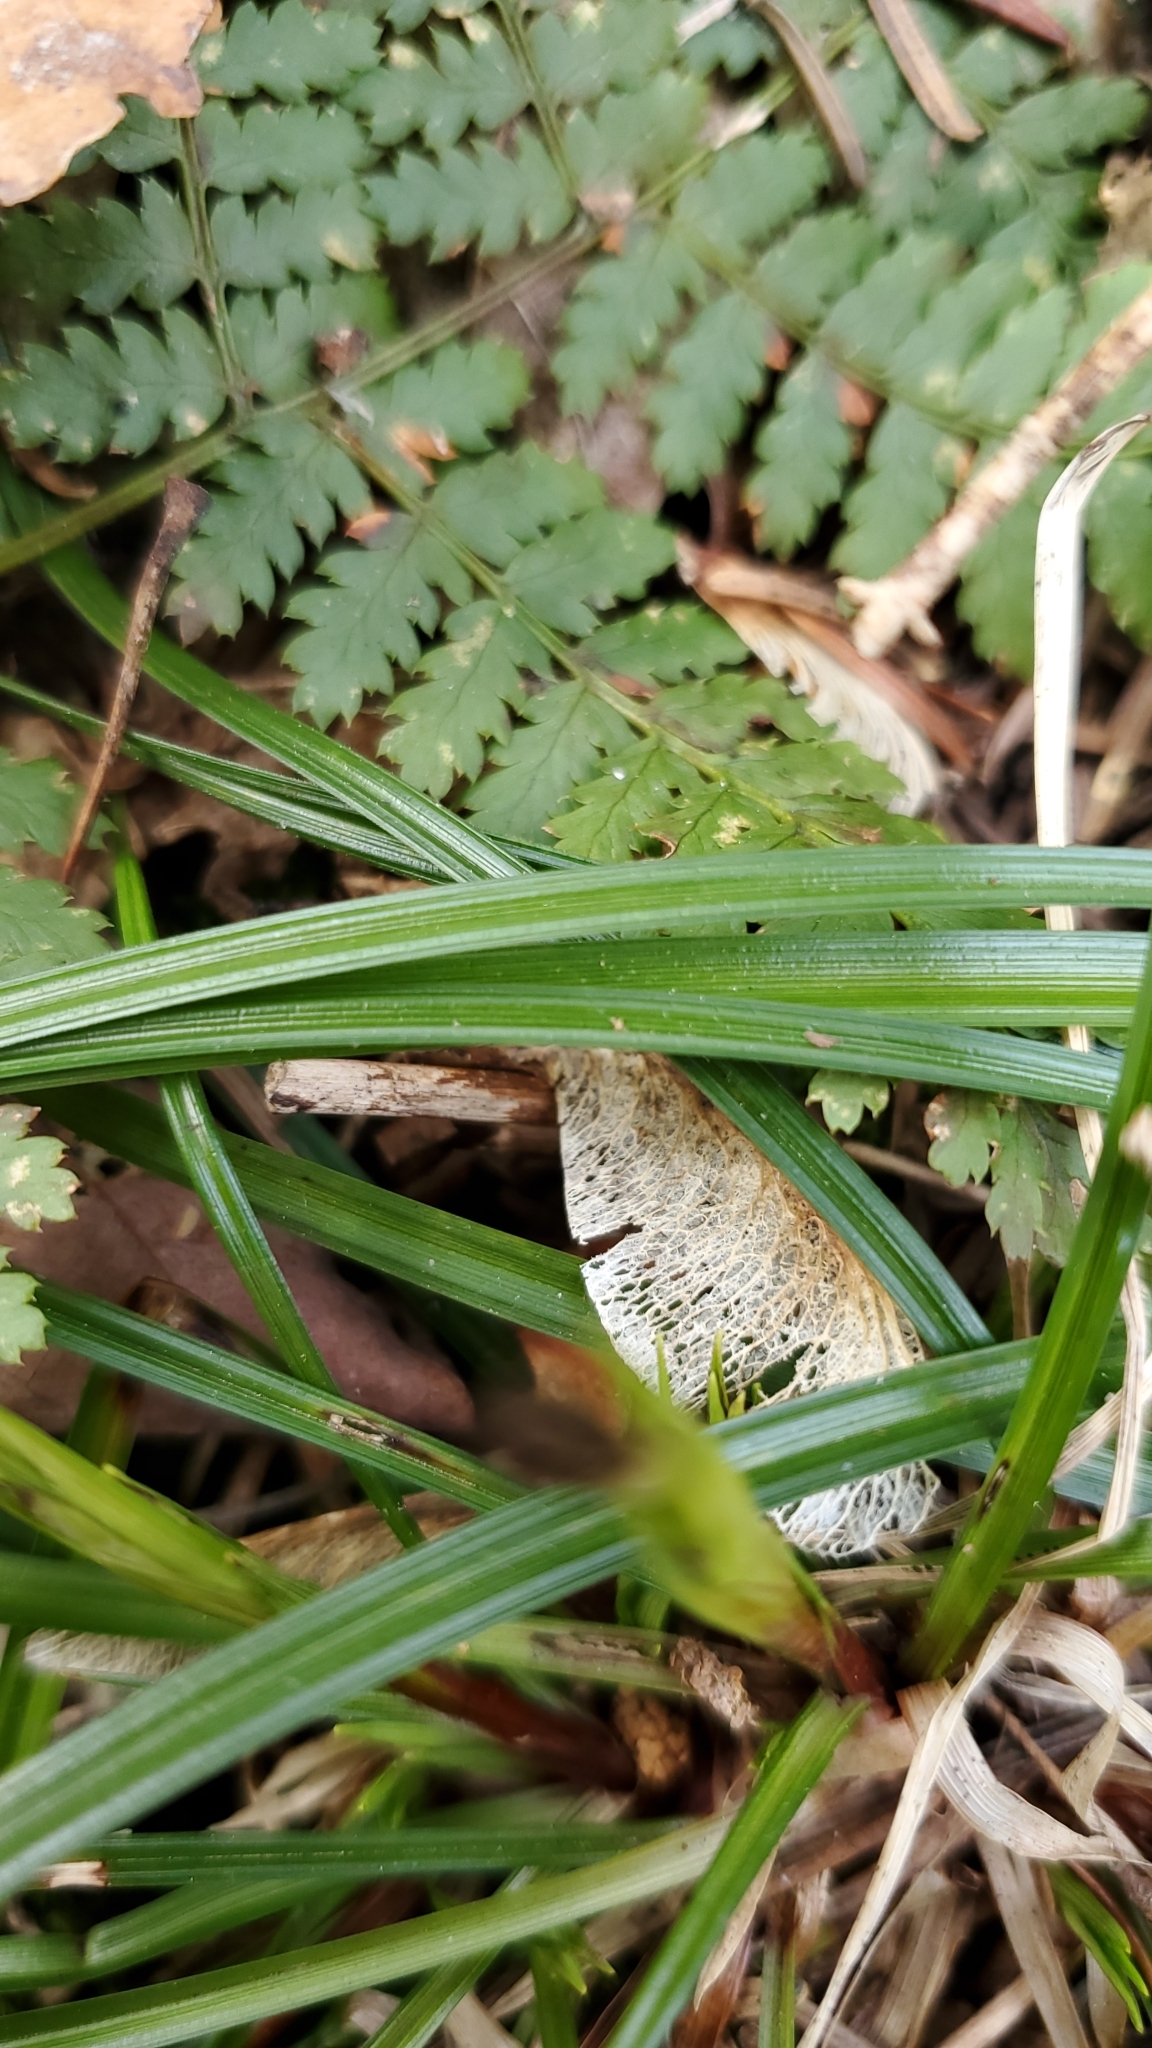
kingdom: Plantae
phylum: Tracheophyta
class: Liliopsida
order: Poales
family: Cyperaceae
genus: Carex
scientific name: Carex pedunculata
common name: Pedunculate sedge
